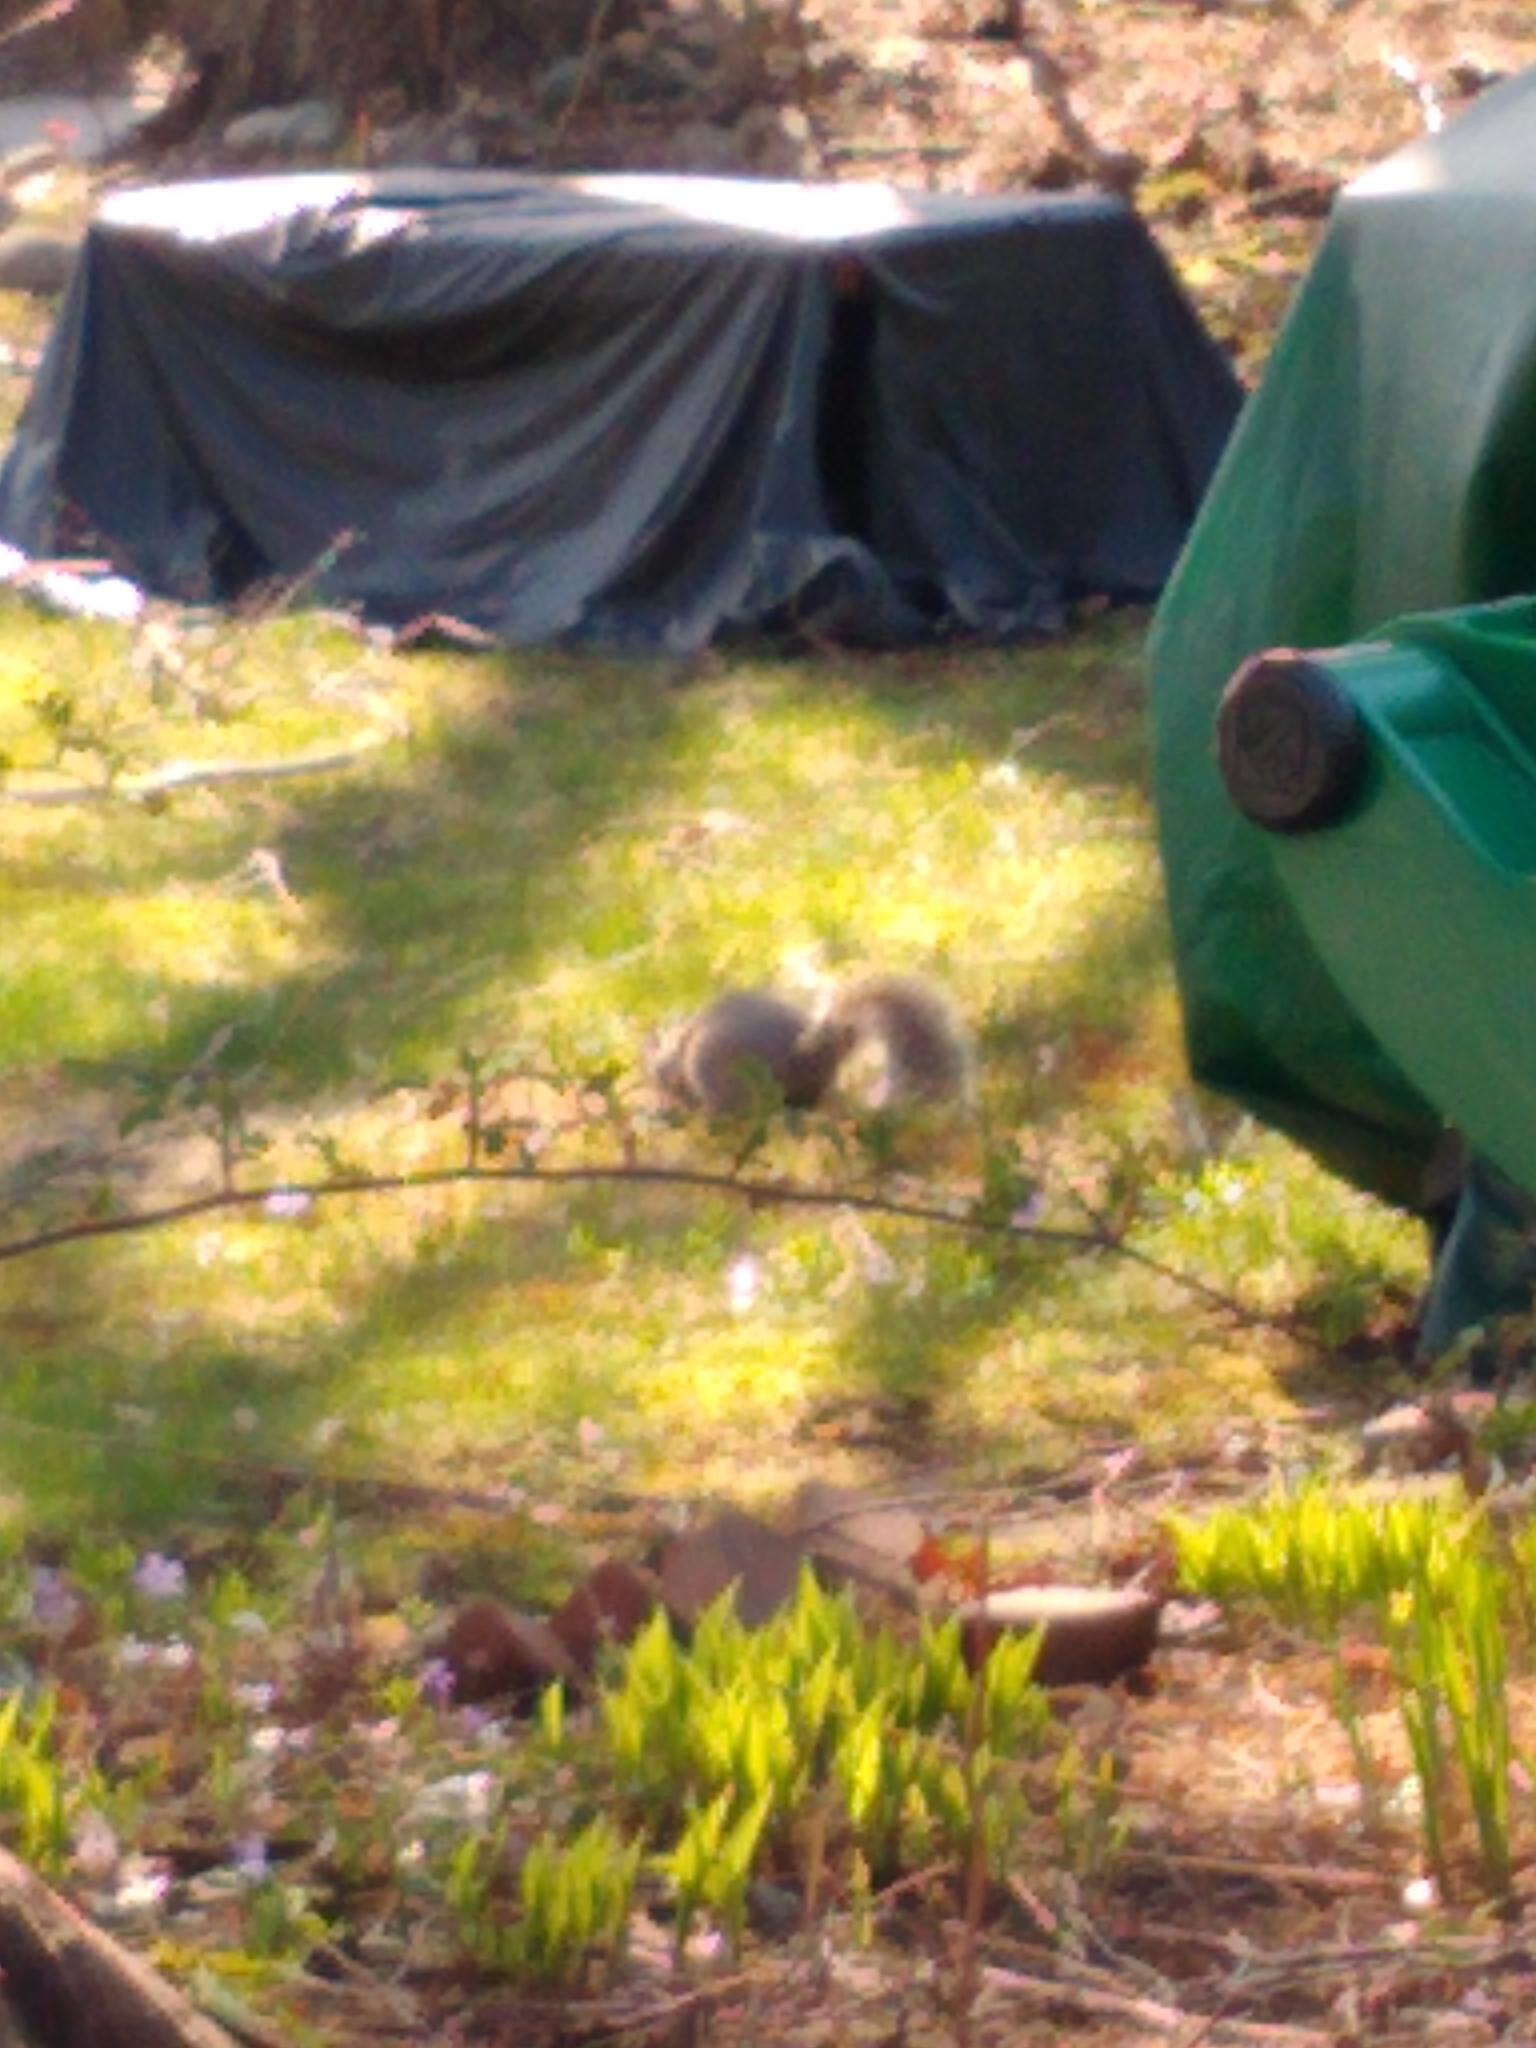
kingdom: Animalia
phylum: Chordata
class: Mammalia
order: Rodentia
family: Sciuridae
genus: Sciurus
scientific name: Sciurus carolinensis
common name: Eastern gray squirrel
